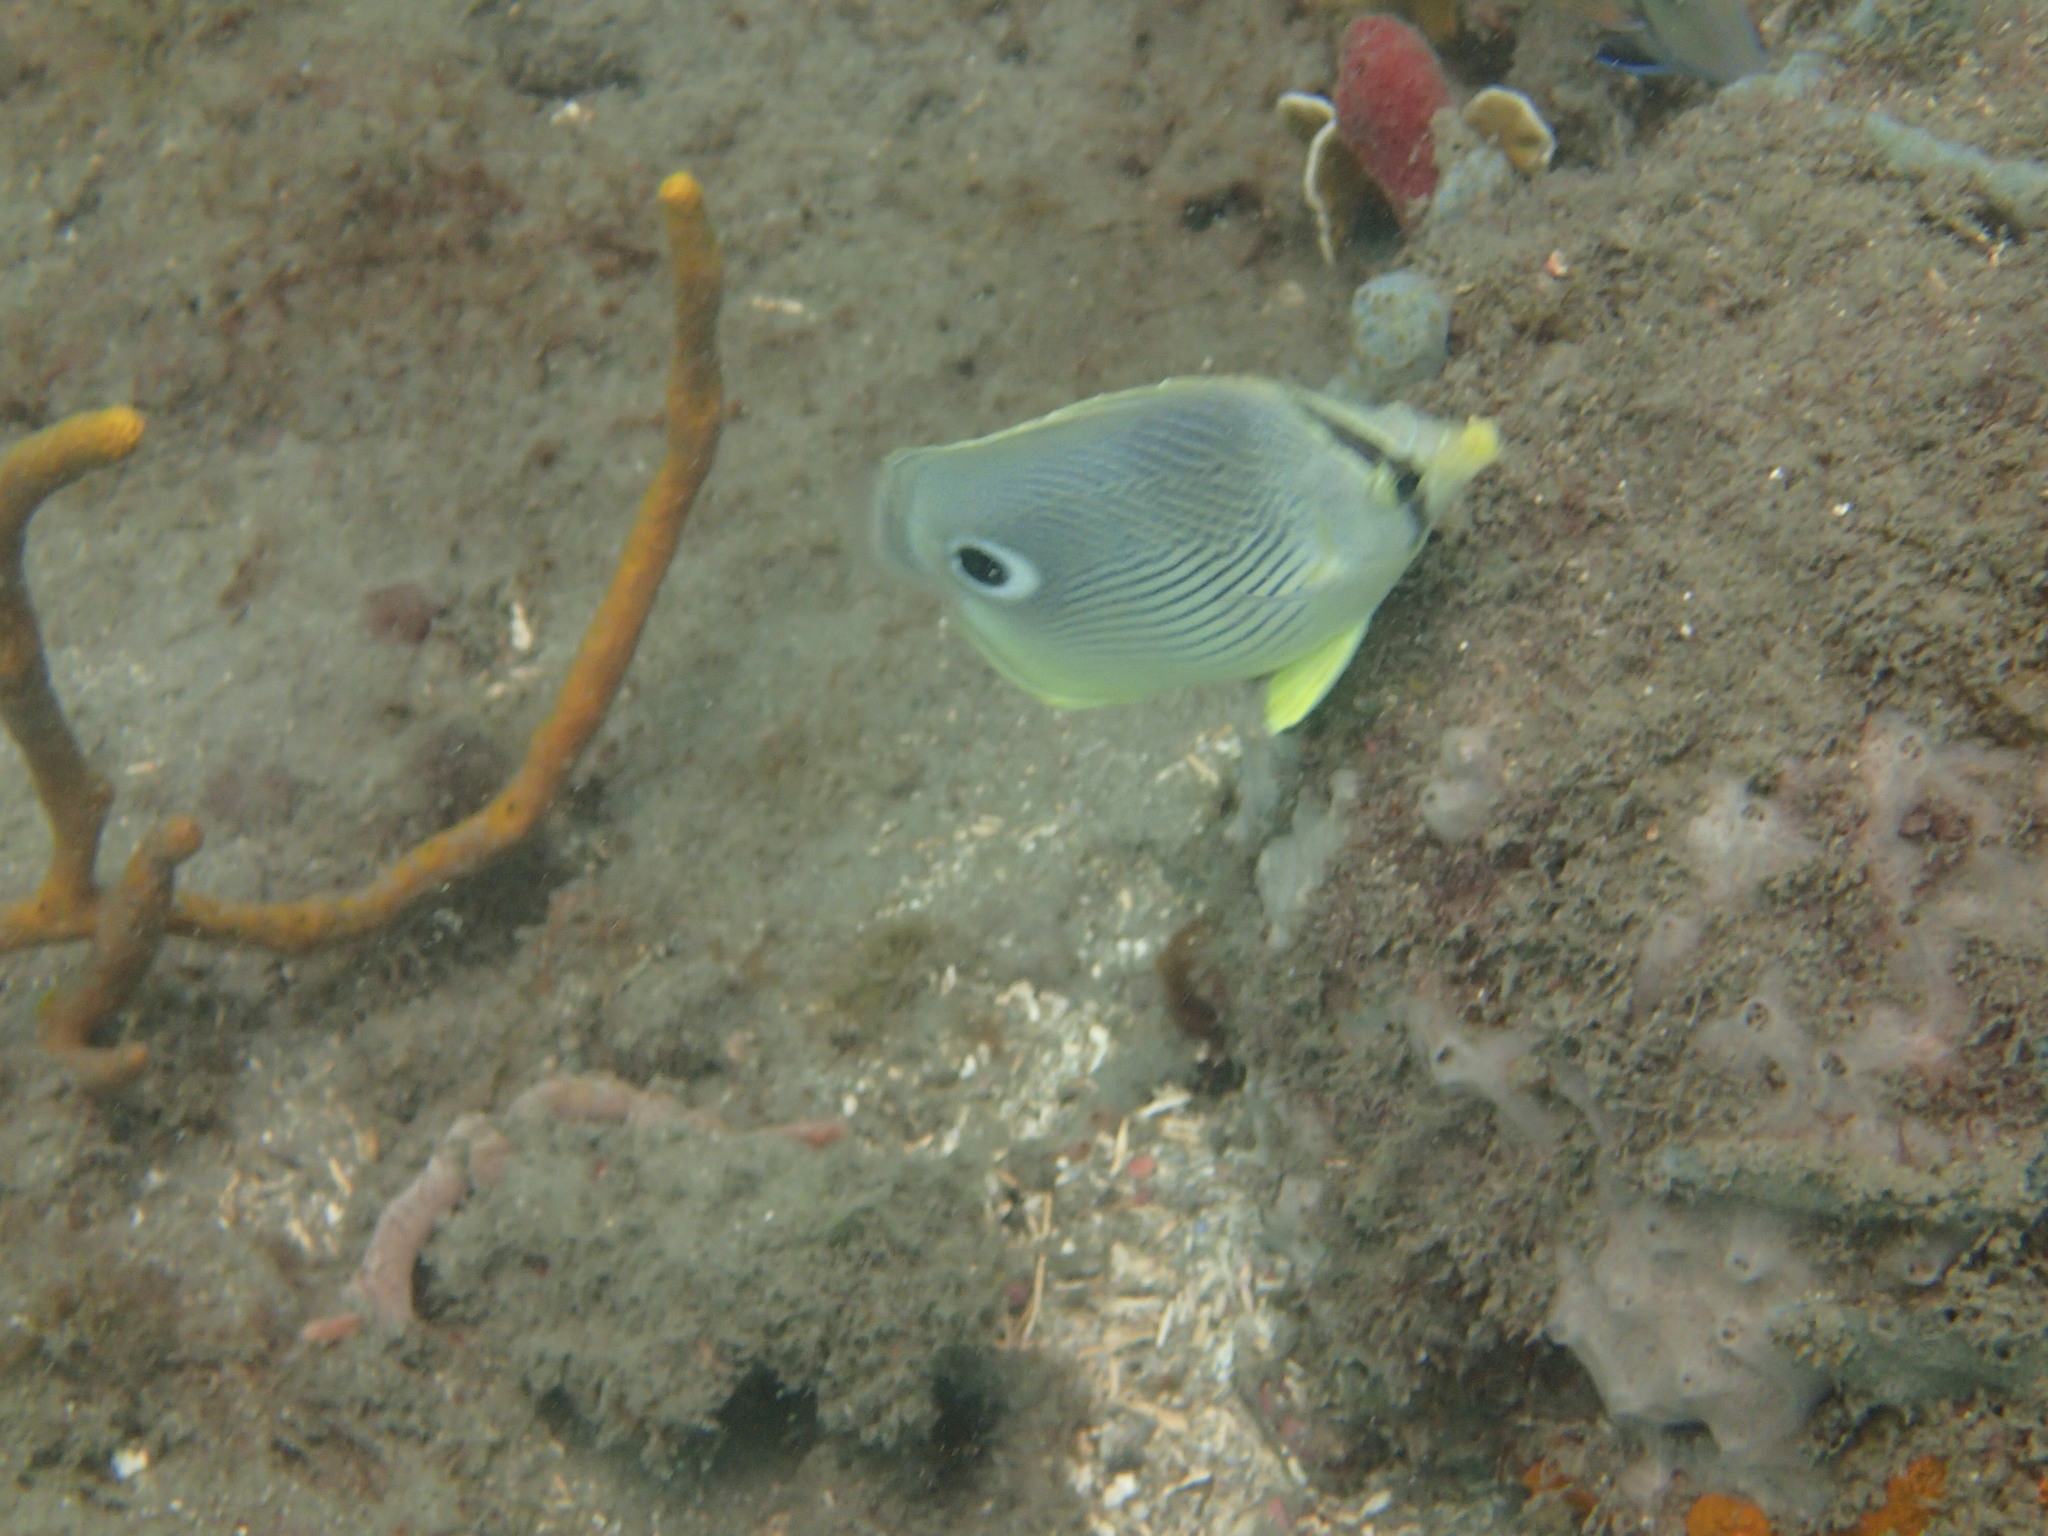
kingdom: Animalia
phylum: Chordata
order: Perciformes
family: Chaetodontidae
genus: Chaetodon
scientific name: Chaetodon capistratus
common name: Kete
